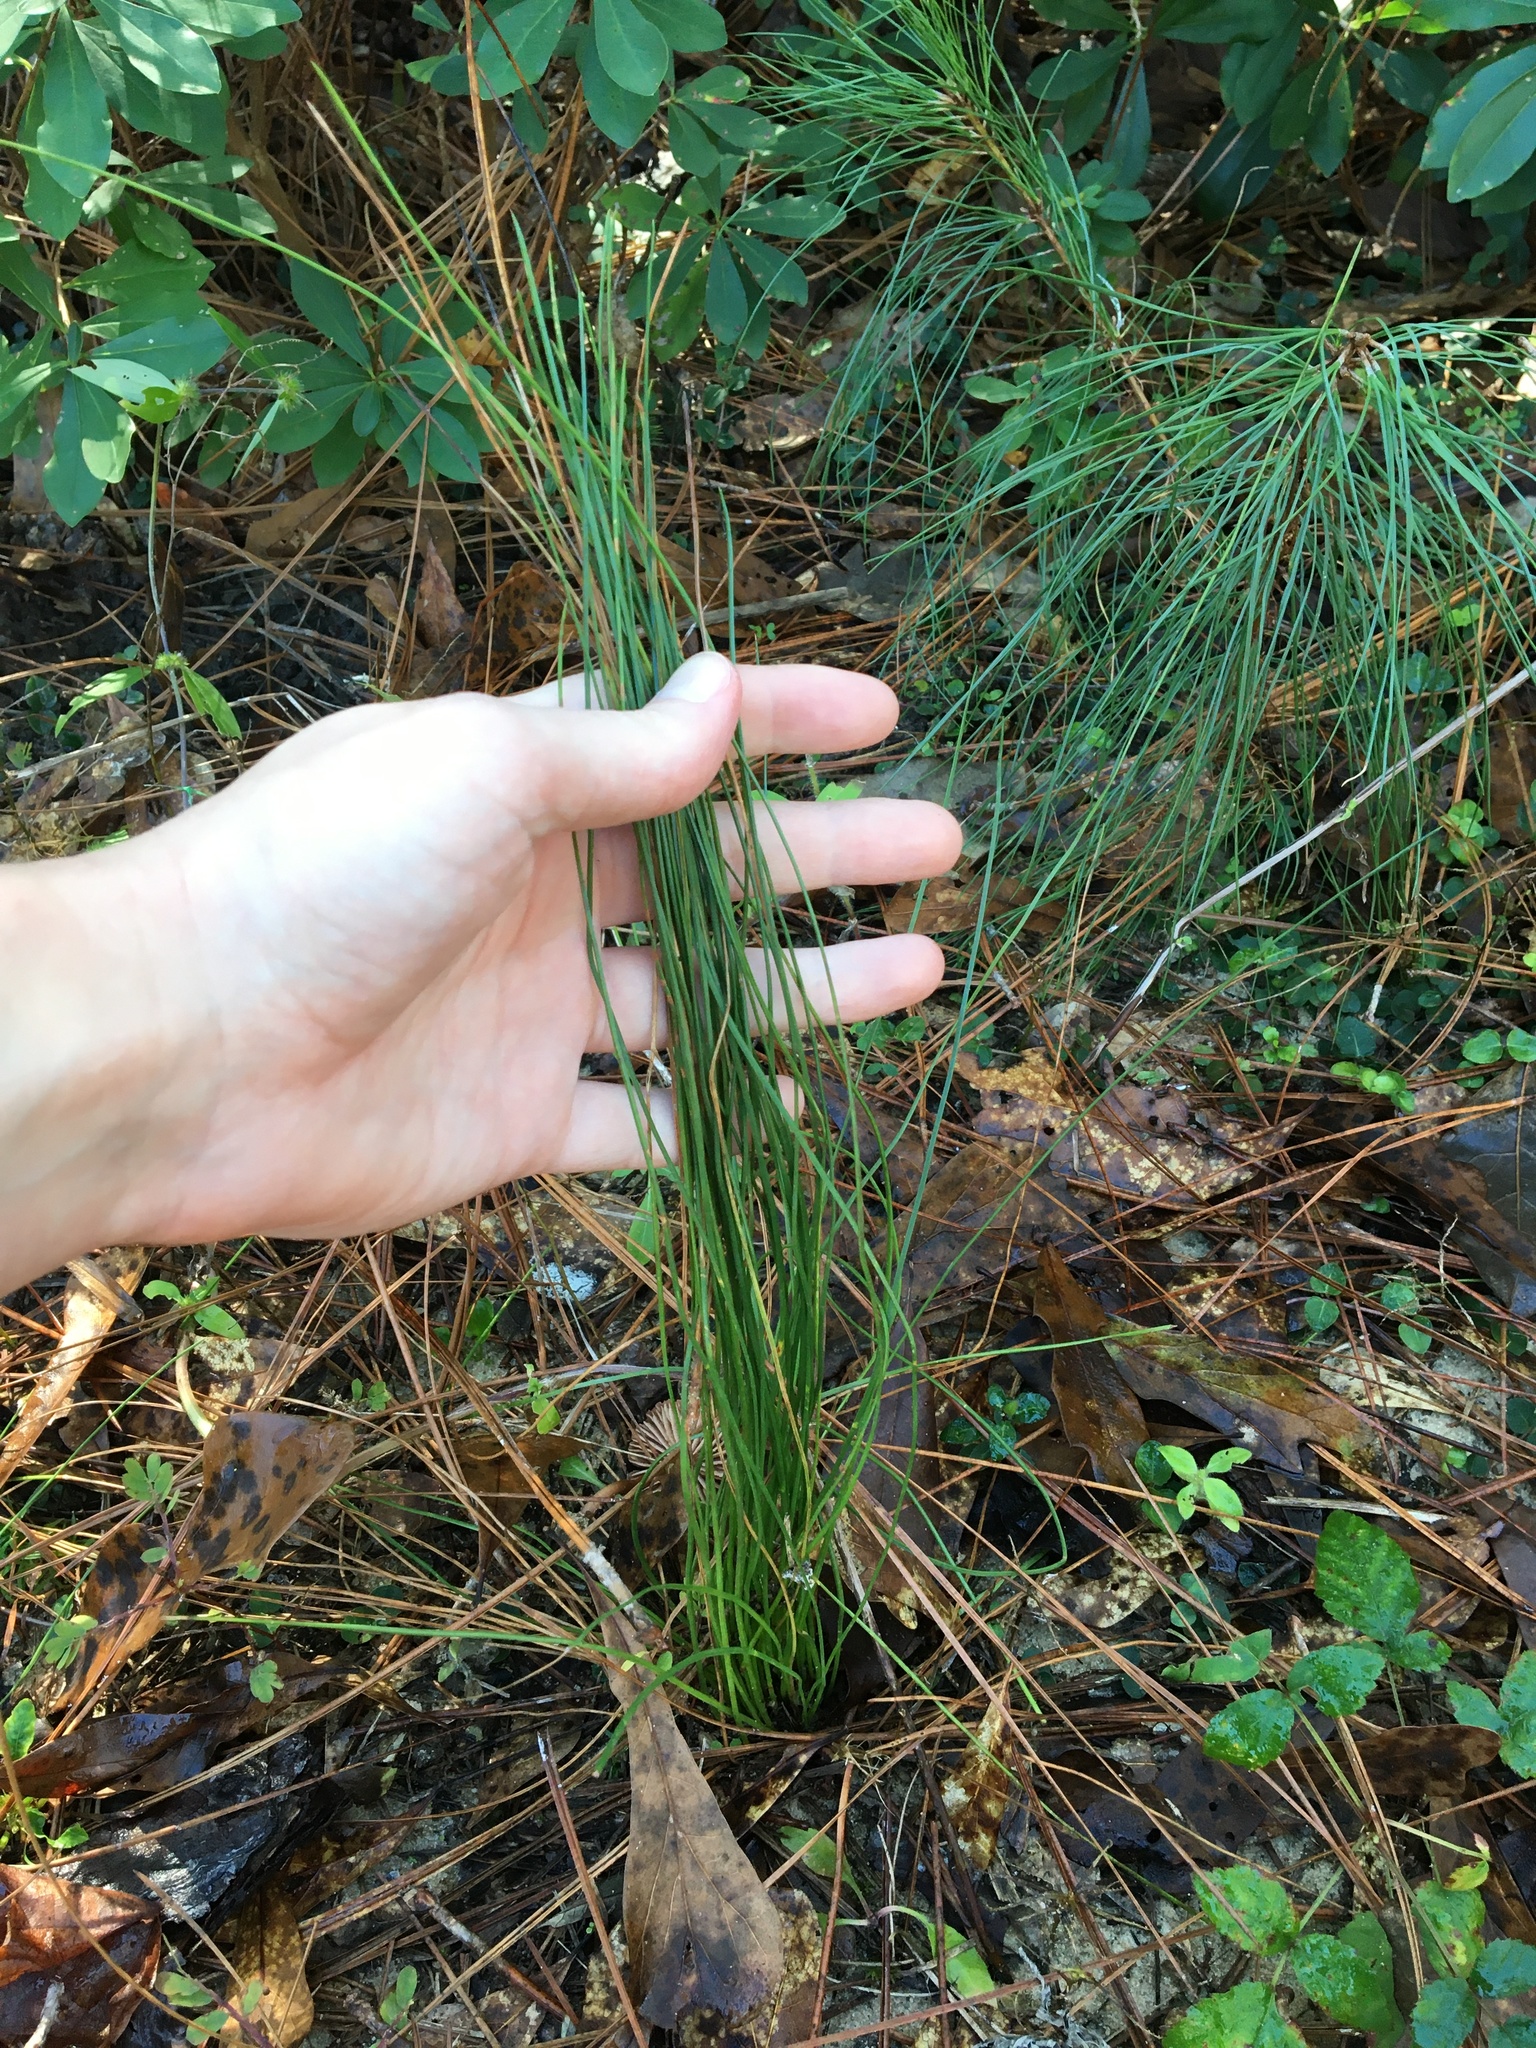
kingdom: Plantae
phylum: Tracheophyta
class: Pinopsida
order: Pinales
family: Pinaceae
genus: Pinus
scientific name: Pinus palustris
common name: Longleaf pine
